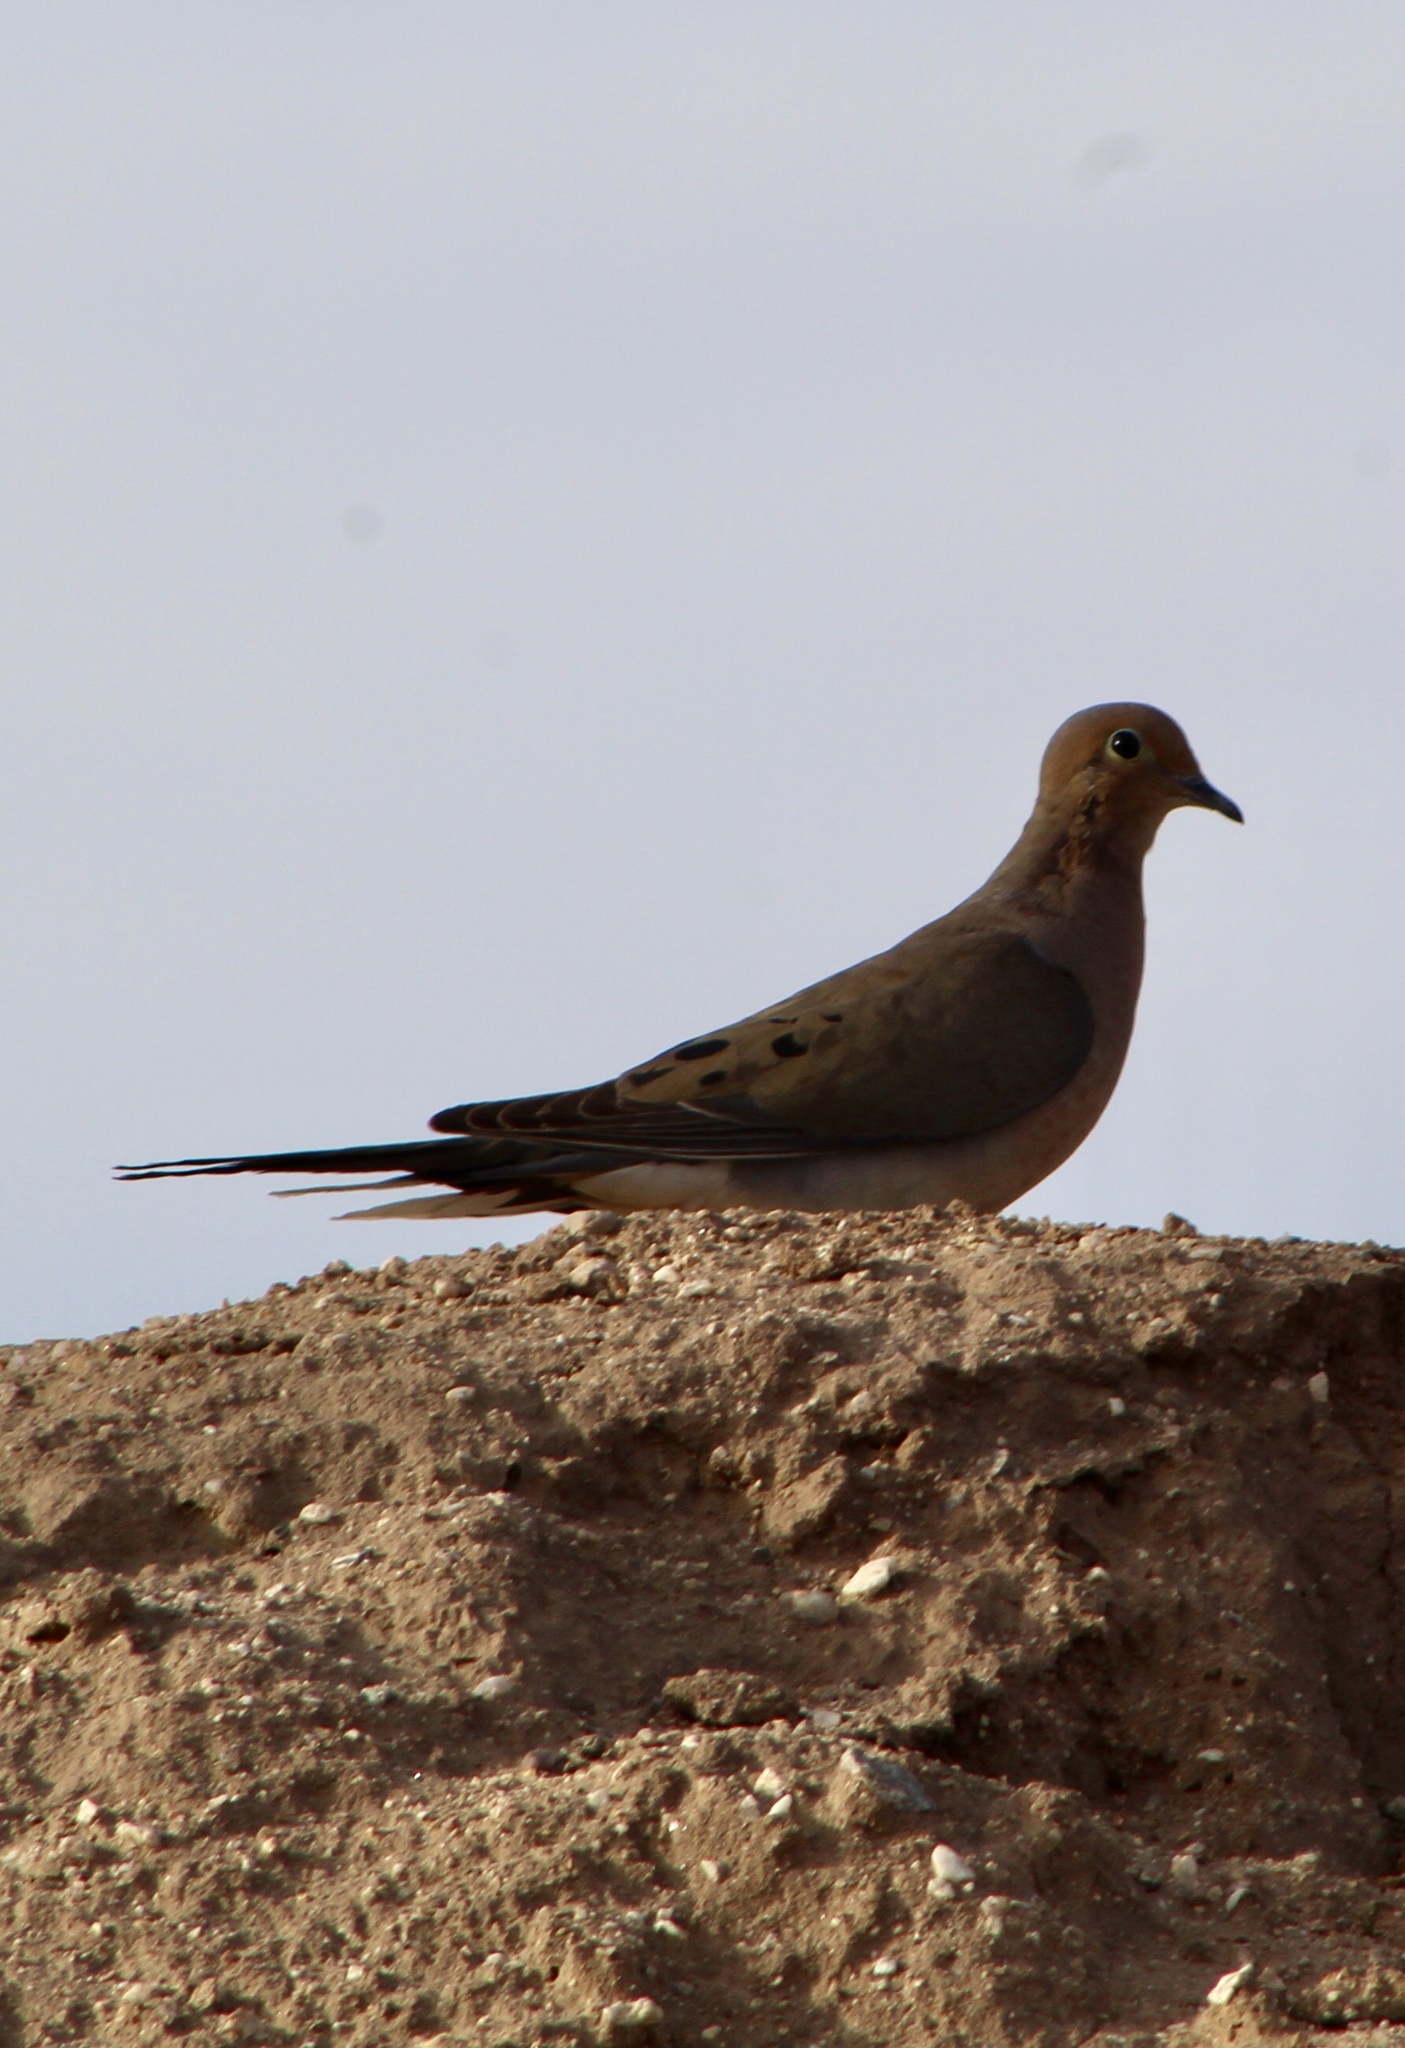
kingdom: Animalia
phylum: Chordata
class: Aves
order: Columbiformes
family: Columbidae
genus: Zenaida
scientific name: Zenaida macroura
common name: Mourning dove
